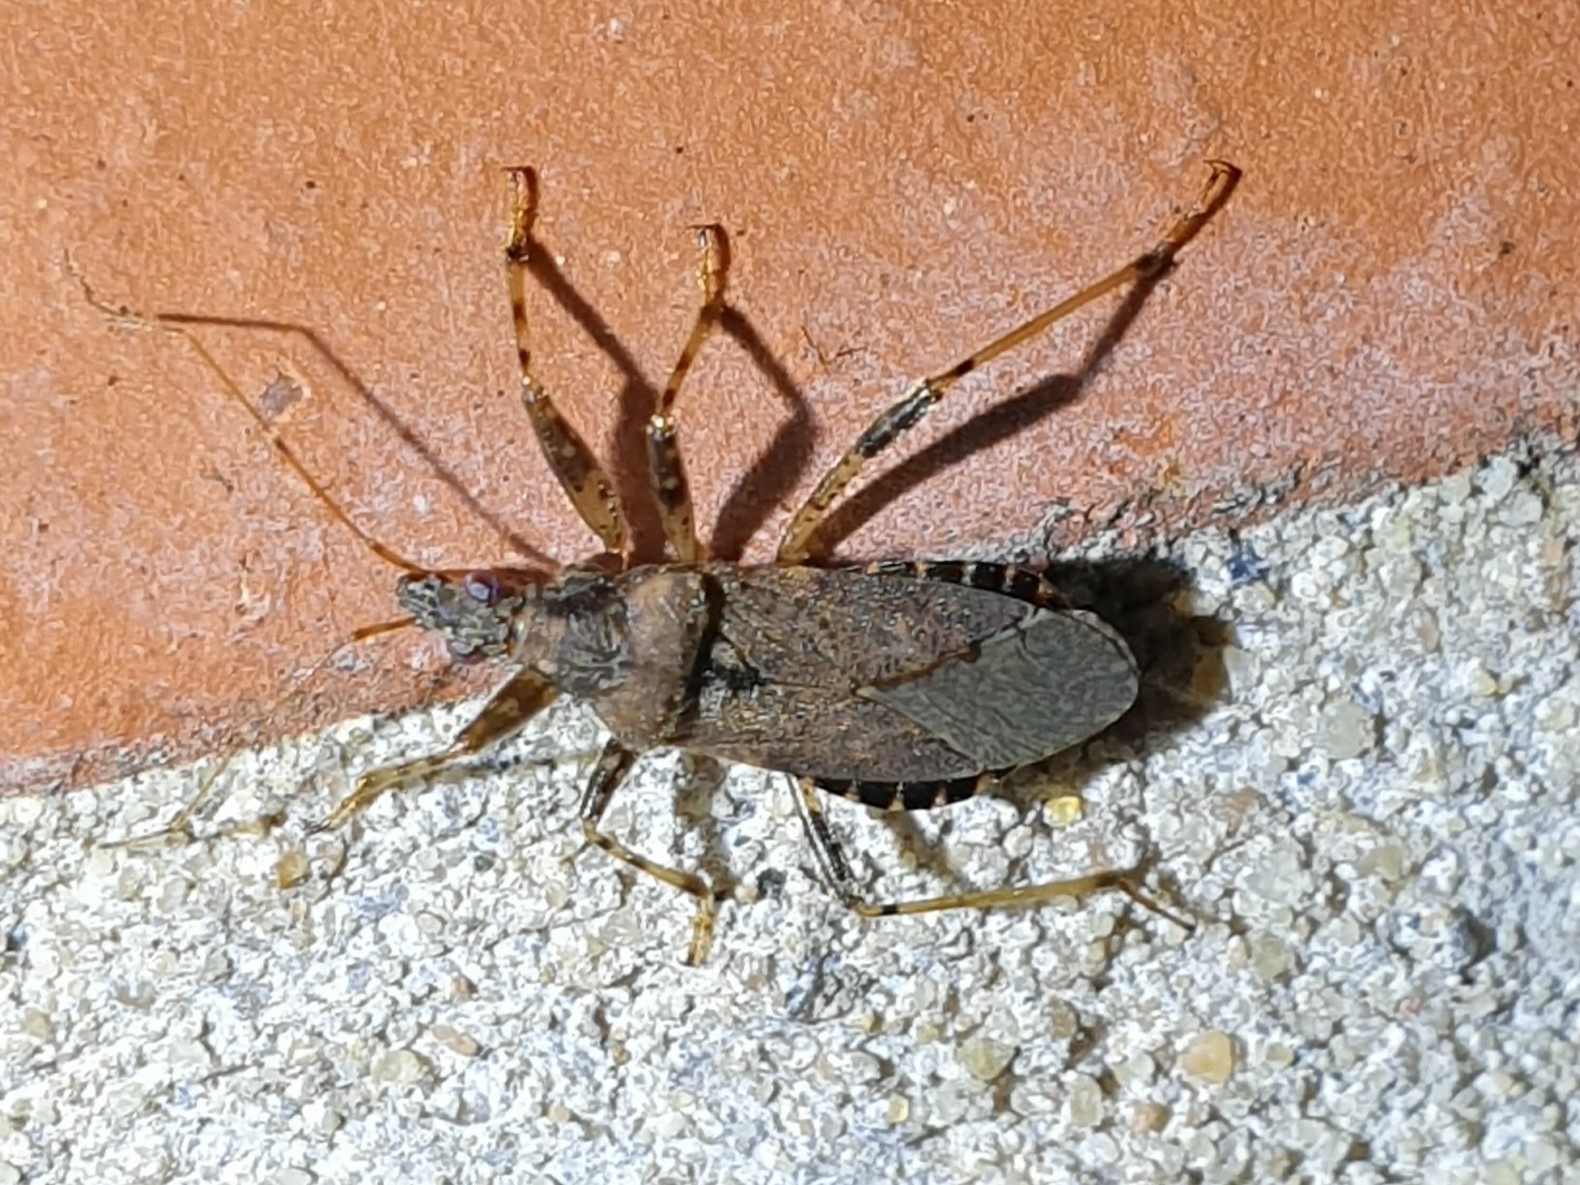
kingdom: Animalia
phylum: Arthropoda
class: Insecta
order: Hemiptera
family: Nabidae
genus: Himacerus
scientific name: Himacerus mirmicoides
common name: Ant damsel bug
